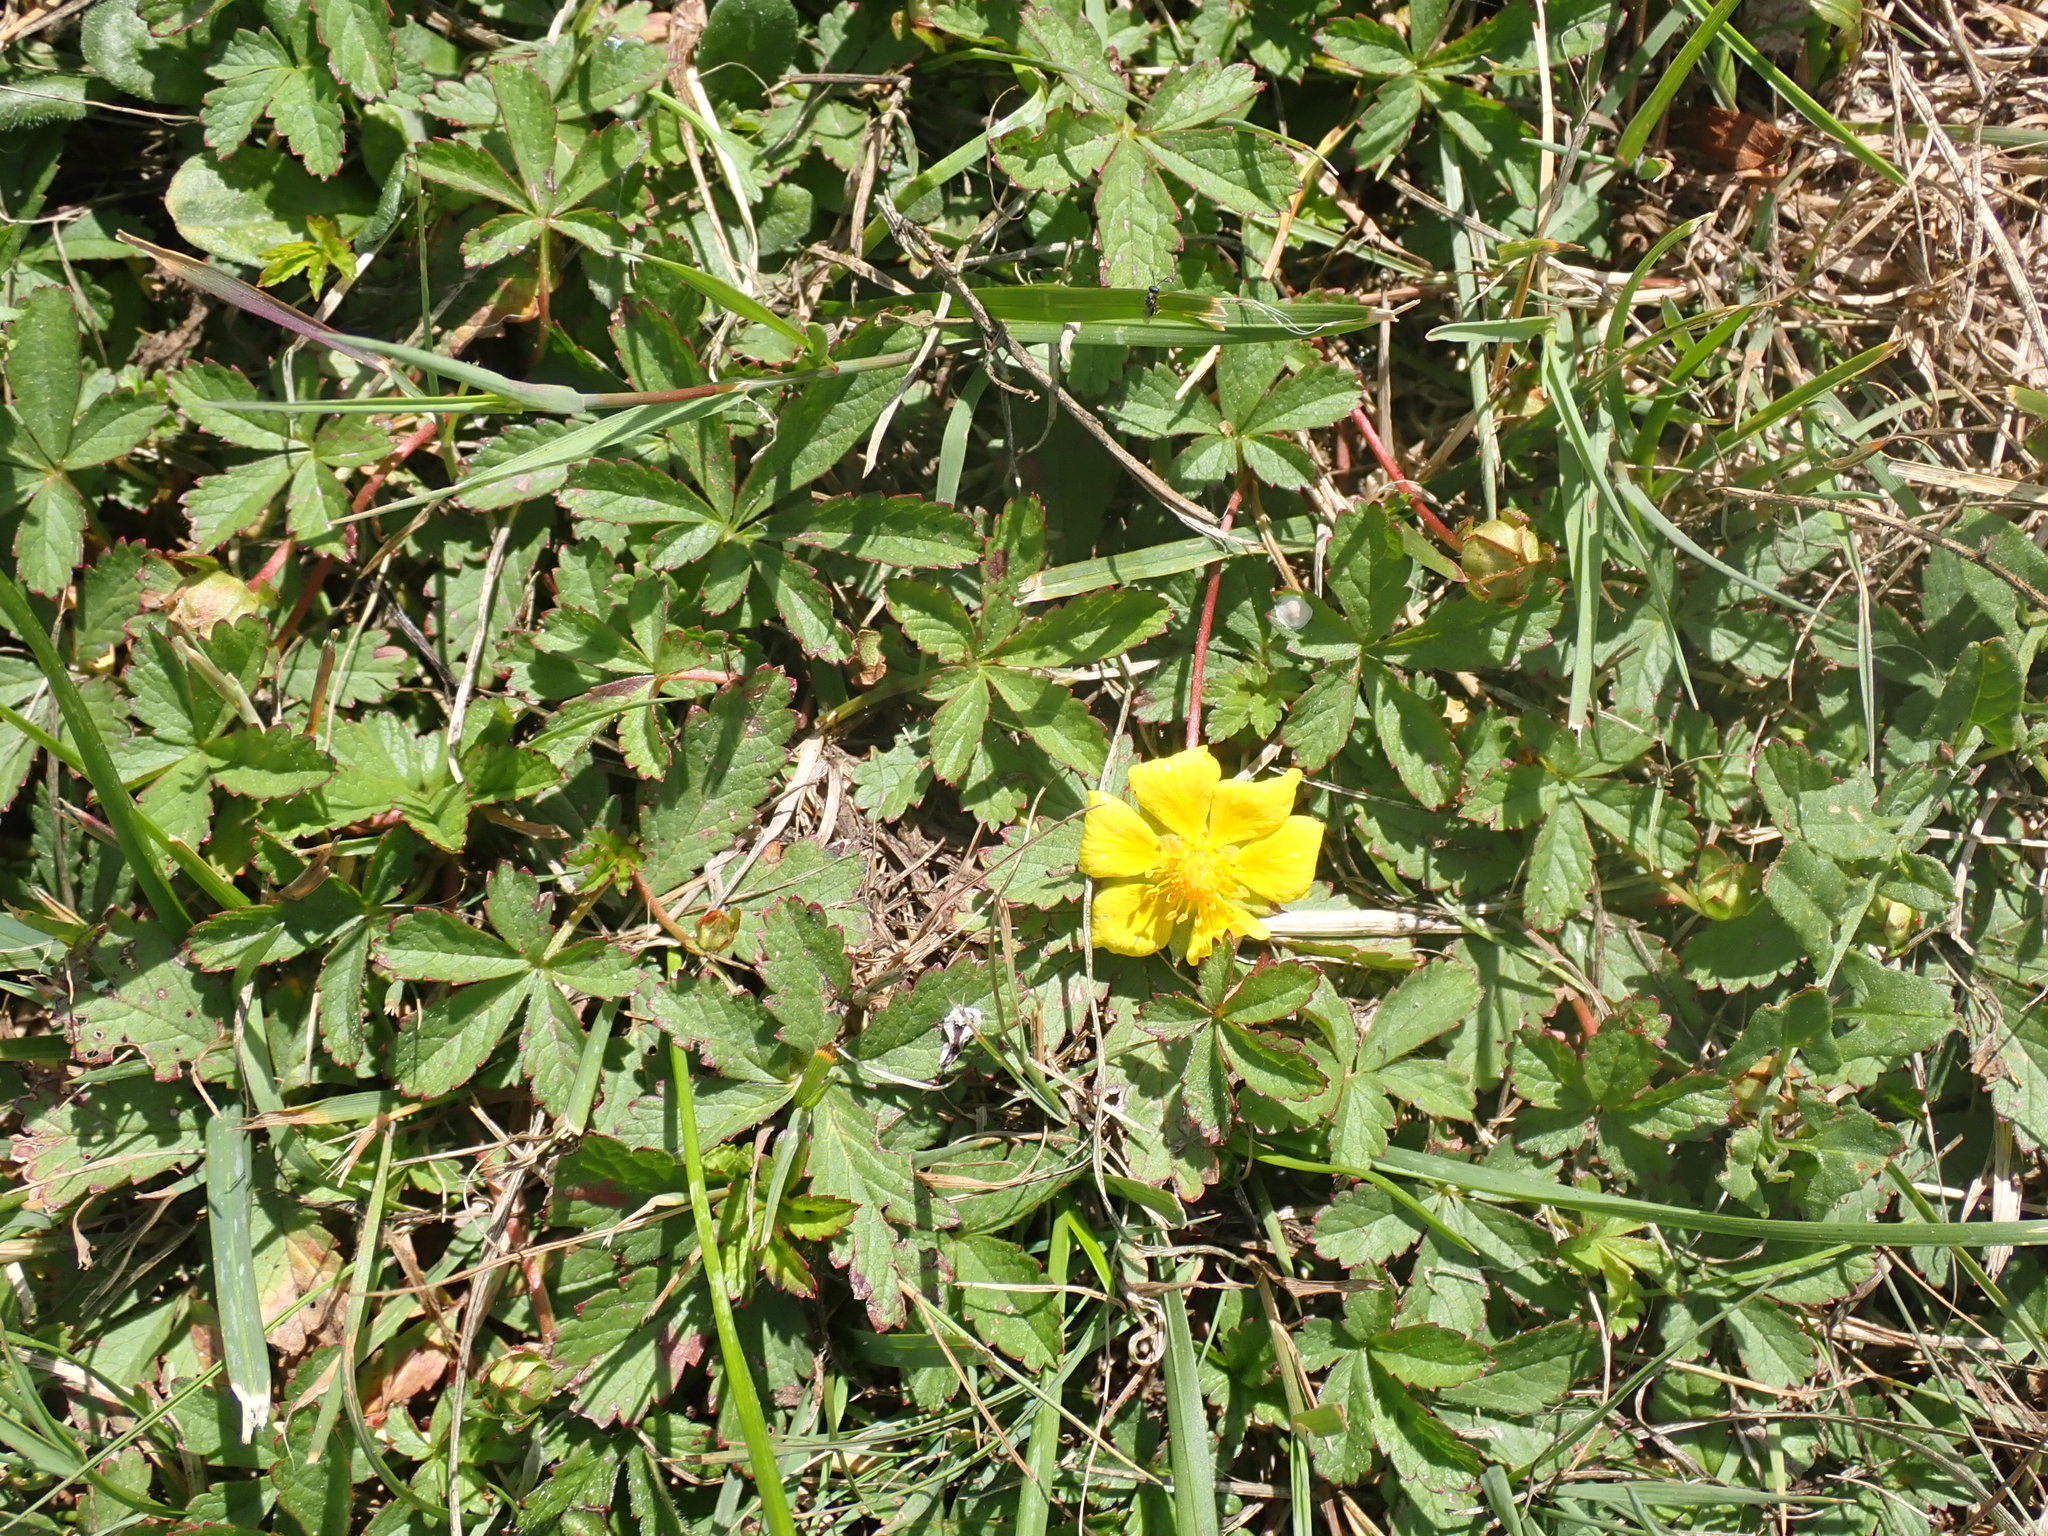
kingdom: Plantae
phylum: Tracheophyta
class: Magnoliopsida
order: Rosales
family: Rosaceae
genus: Potentilla
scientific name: Potentilla reptans
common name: Creeping cinquefoil
